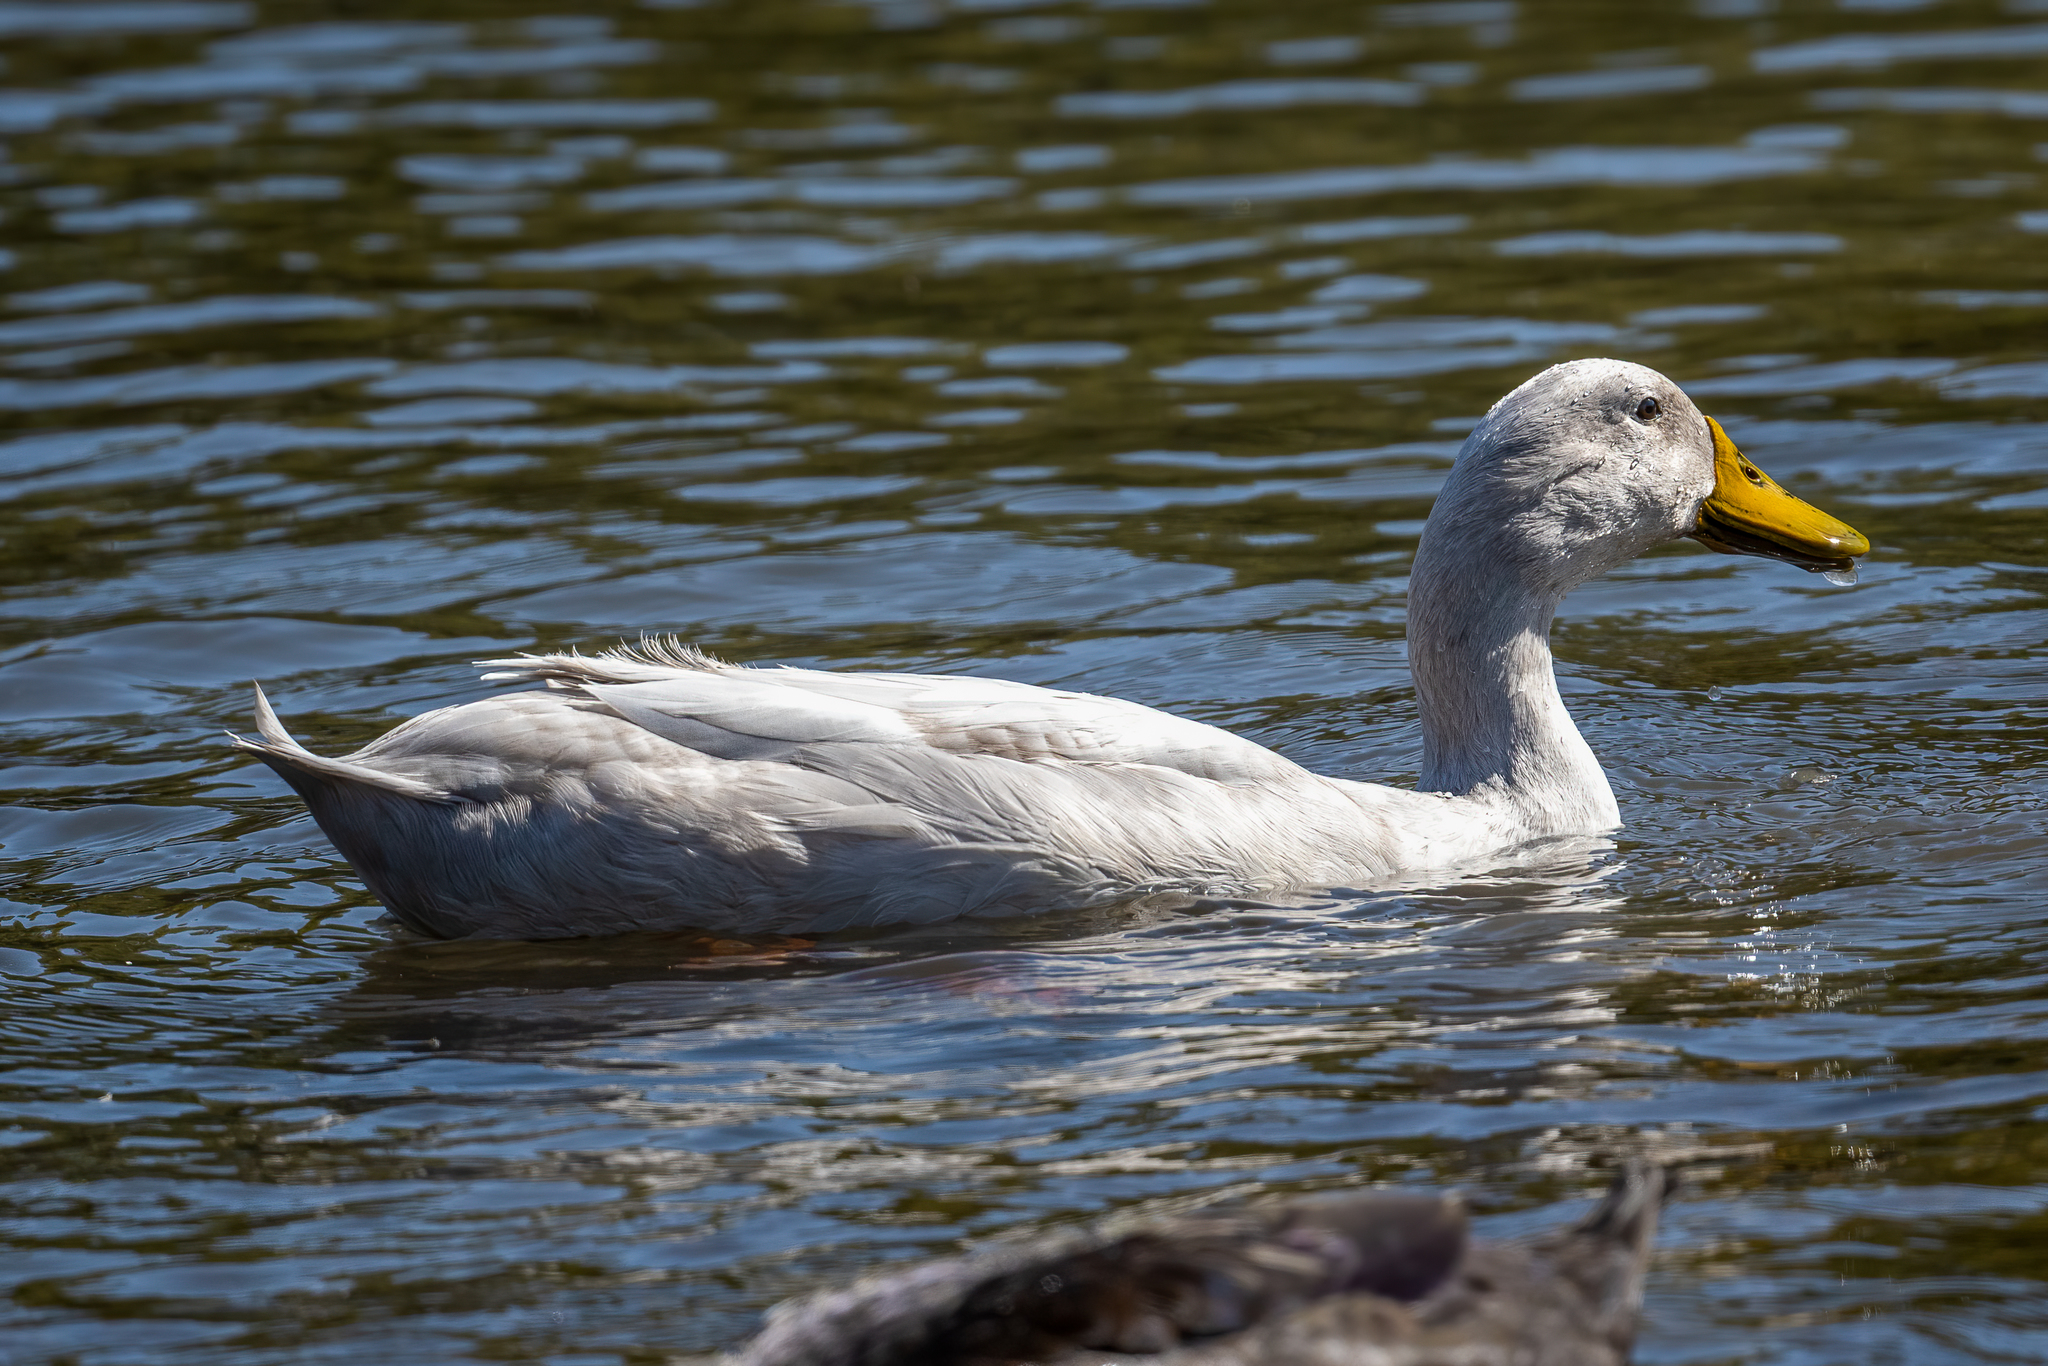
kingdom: Animalia
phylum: Chordata
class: Aves
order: Anseriformes
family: Anatidae
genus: Anas
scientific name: Anas platyrhynchos
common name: Mallard
